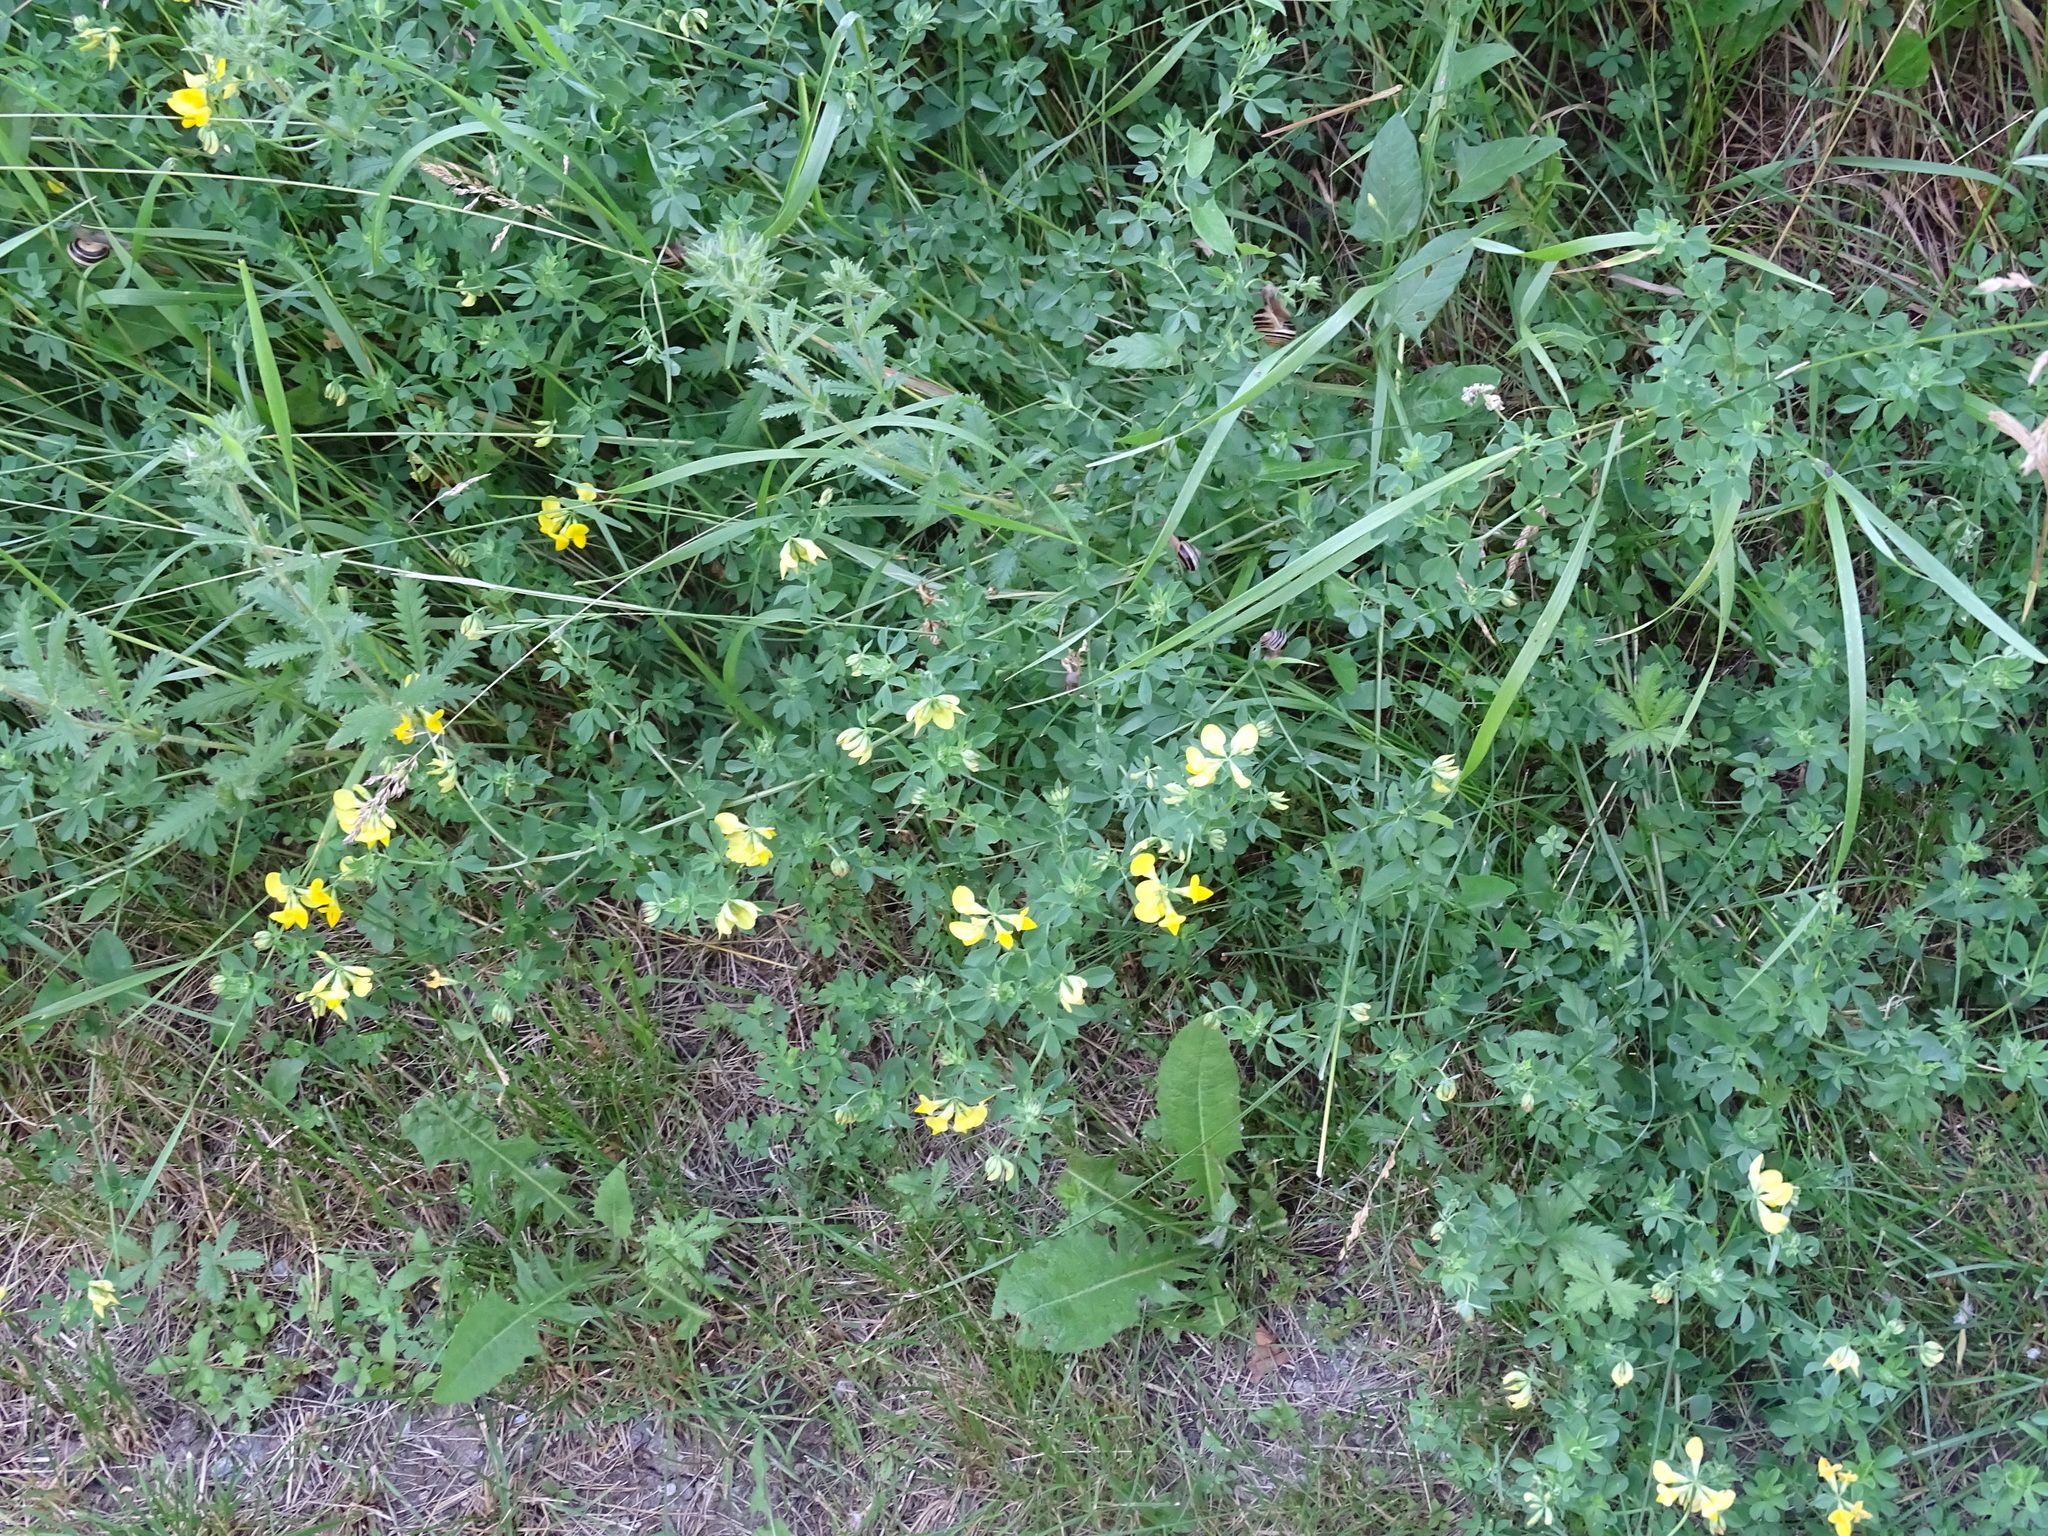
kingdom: Plantae
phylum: Tracheophyta
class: Magnoliopsida
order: Fabales
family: Fabaceae
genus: Lotus
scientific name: Lotus corniculatus
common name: Common bird's-foot-trefoil
